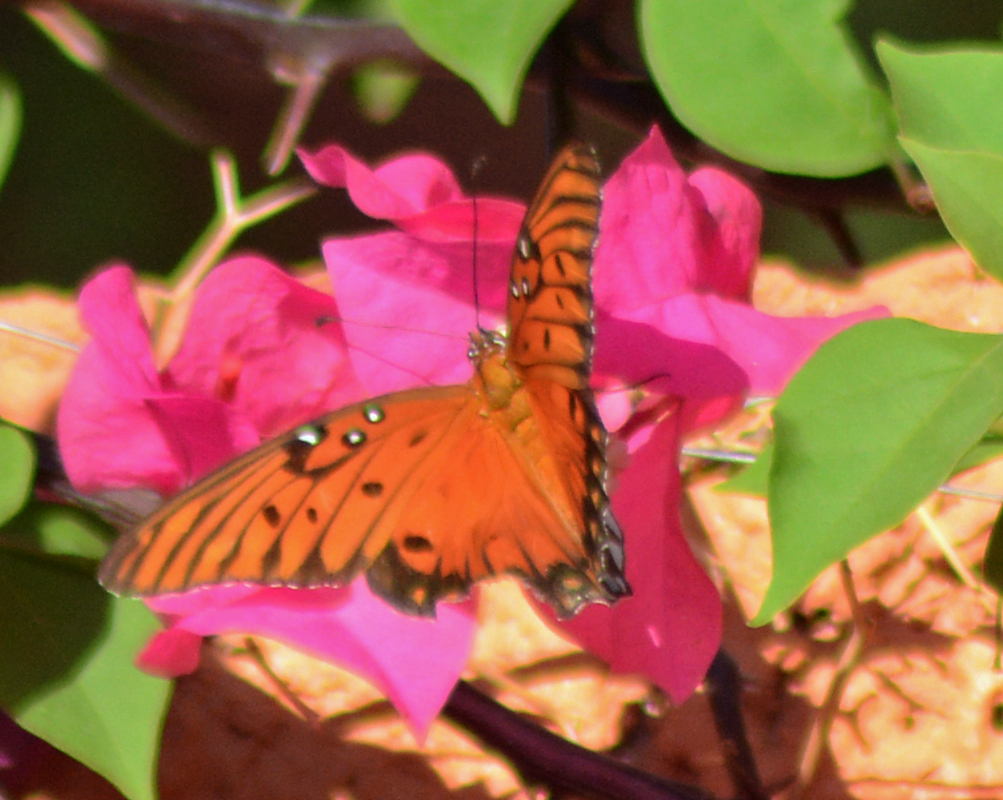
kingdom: Animalia
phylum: Arthropoda
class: Insecta
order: Lepidoptera
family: Nymphalidae
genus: Dione
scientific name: Dione vanillae
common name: Gulf fritillary
